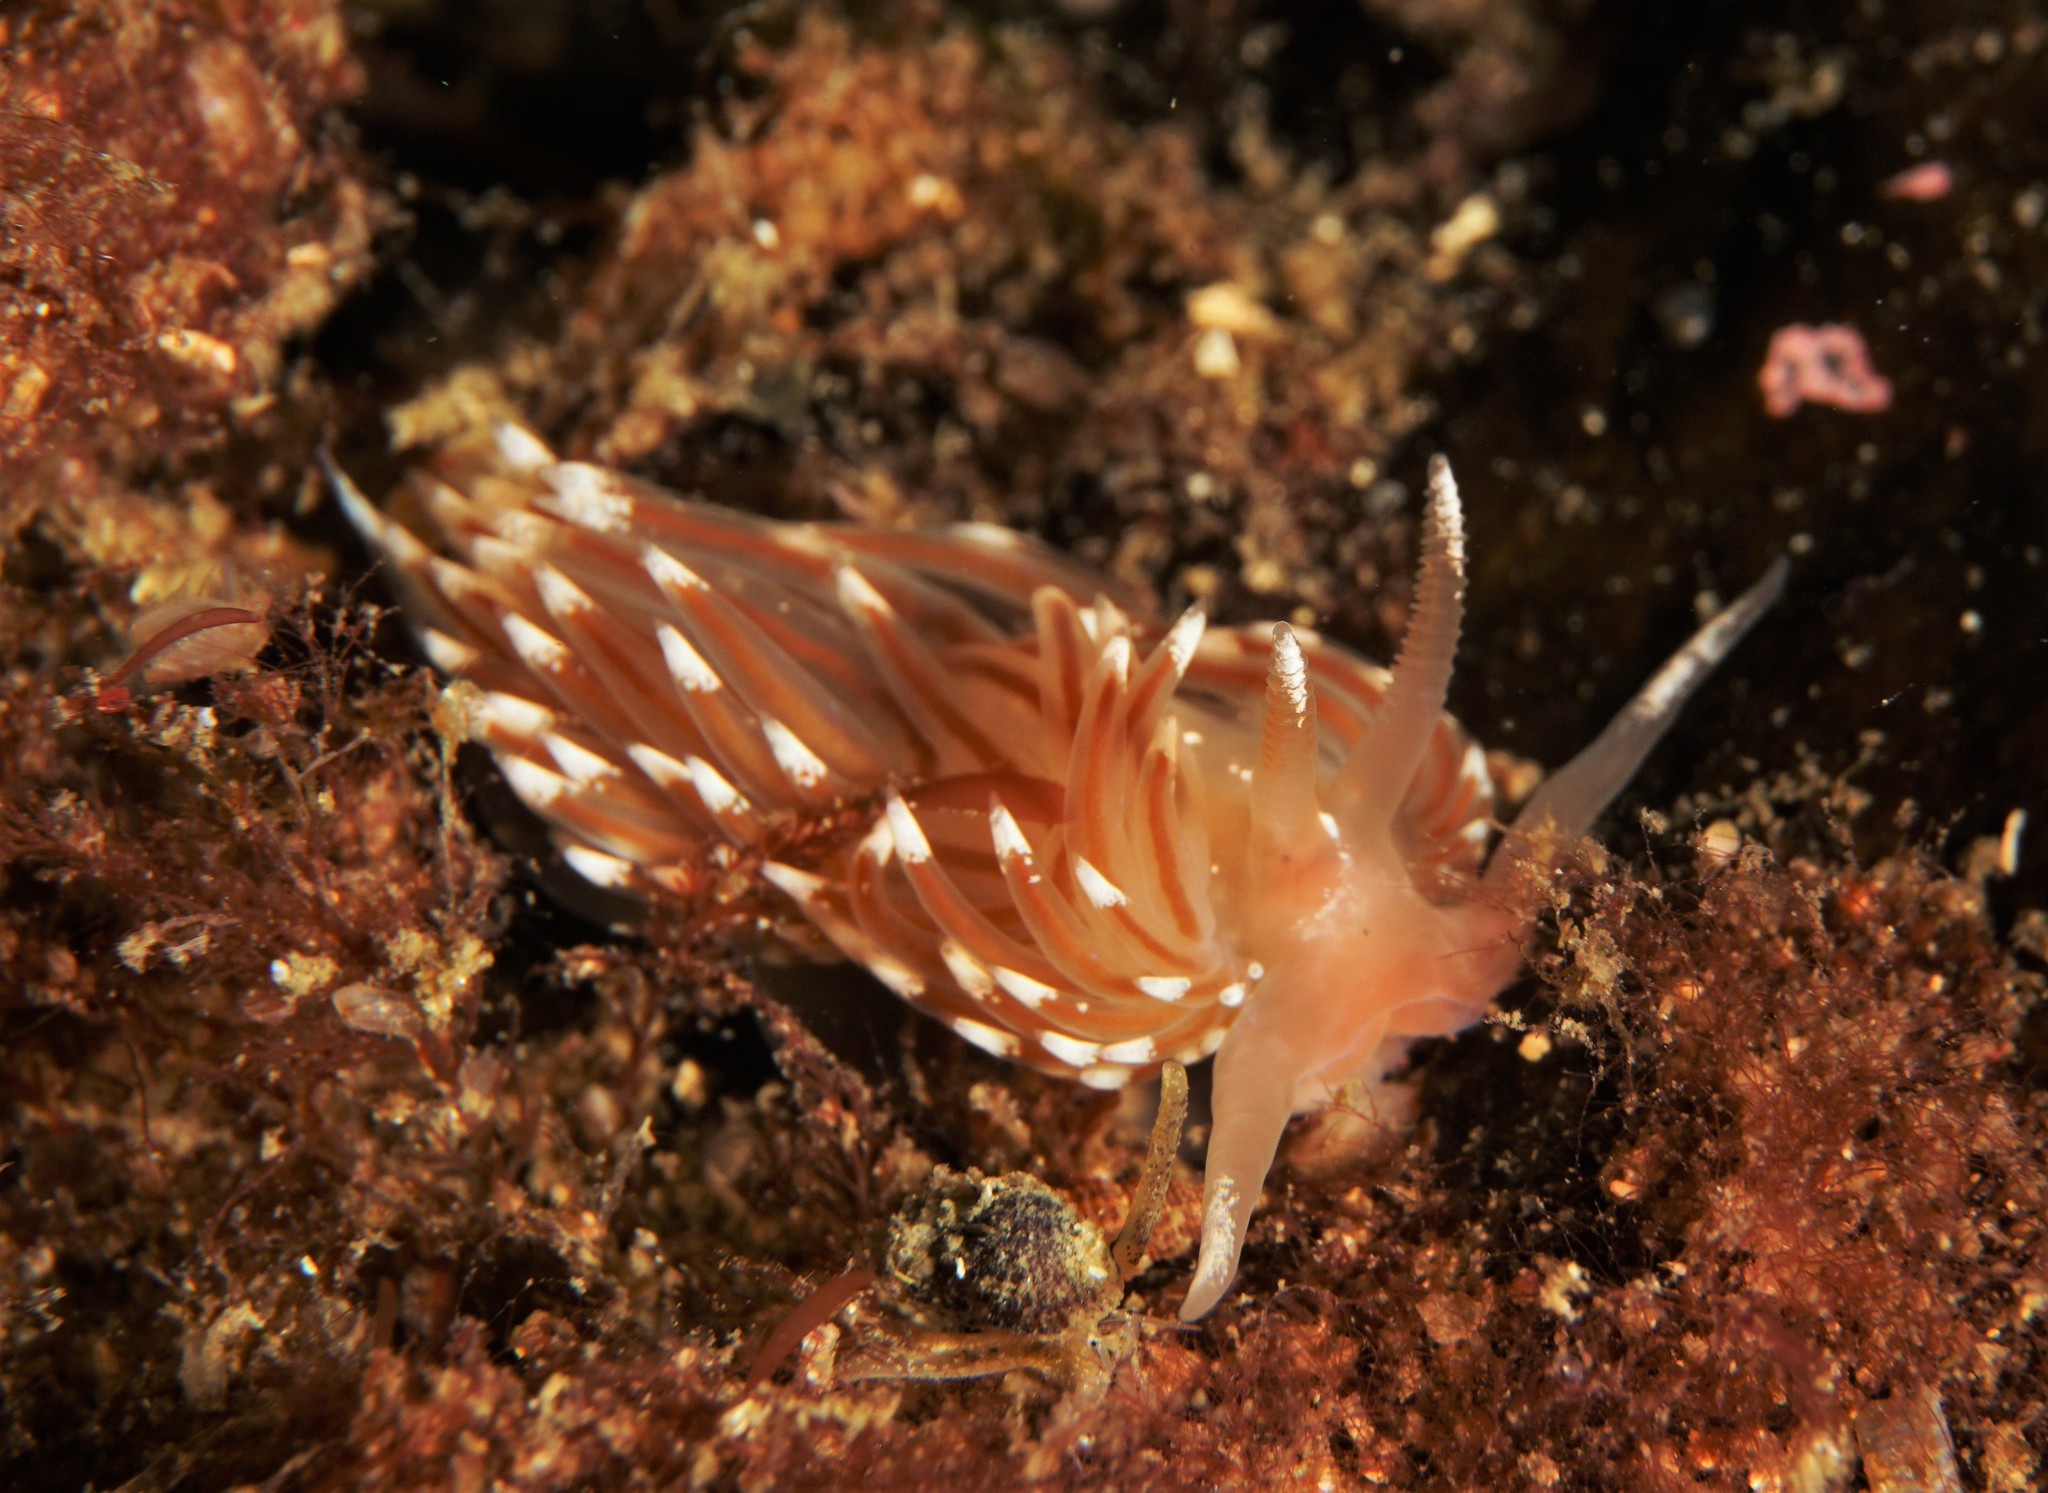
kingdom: Animalia
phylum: Mollusca
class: Gastropoda
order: Nudibranchia
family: Facelinidae
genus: Facelina
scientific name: Facelina bostoniensis
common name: Boston facelina
